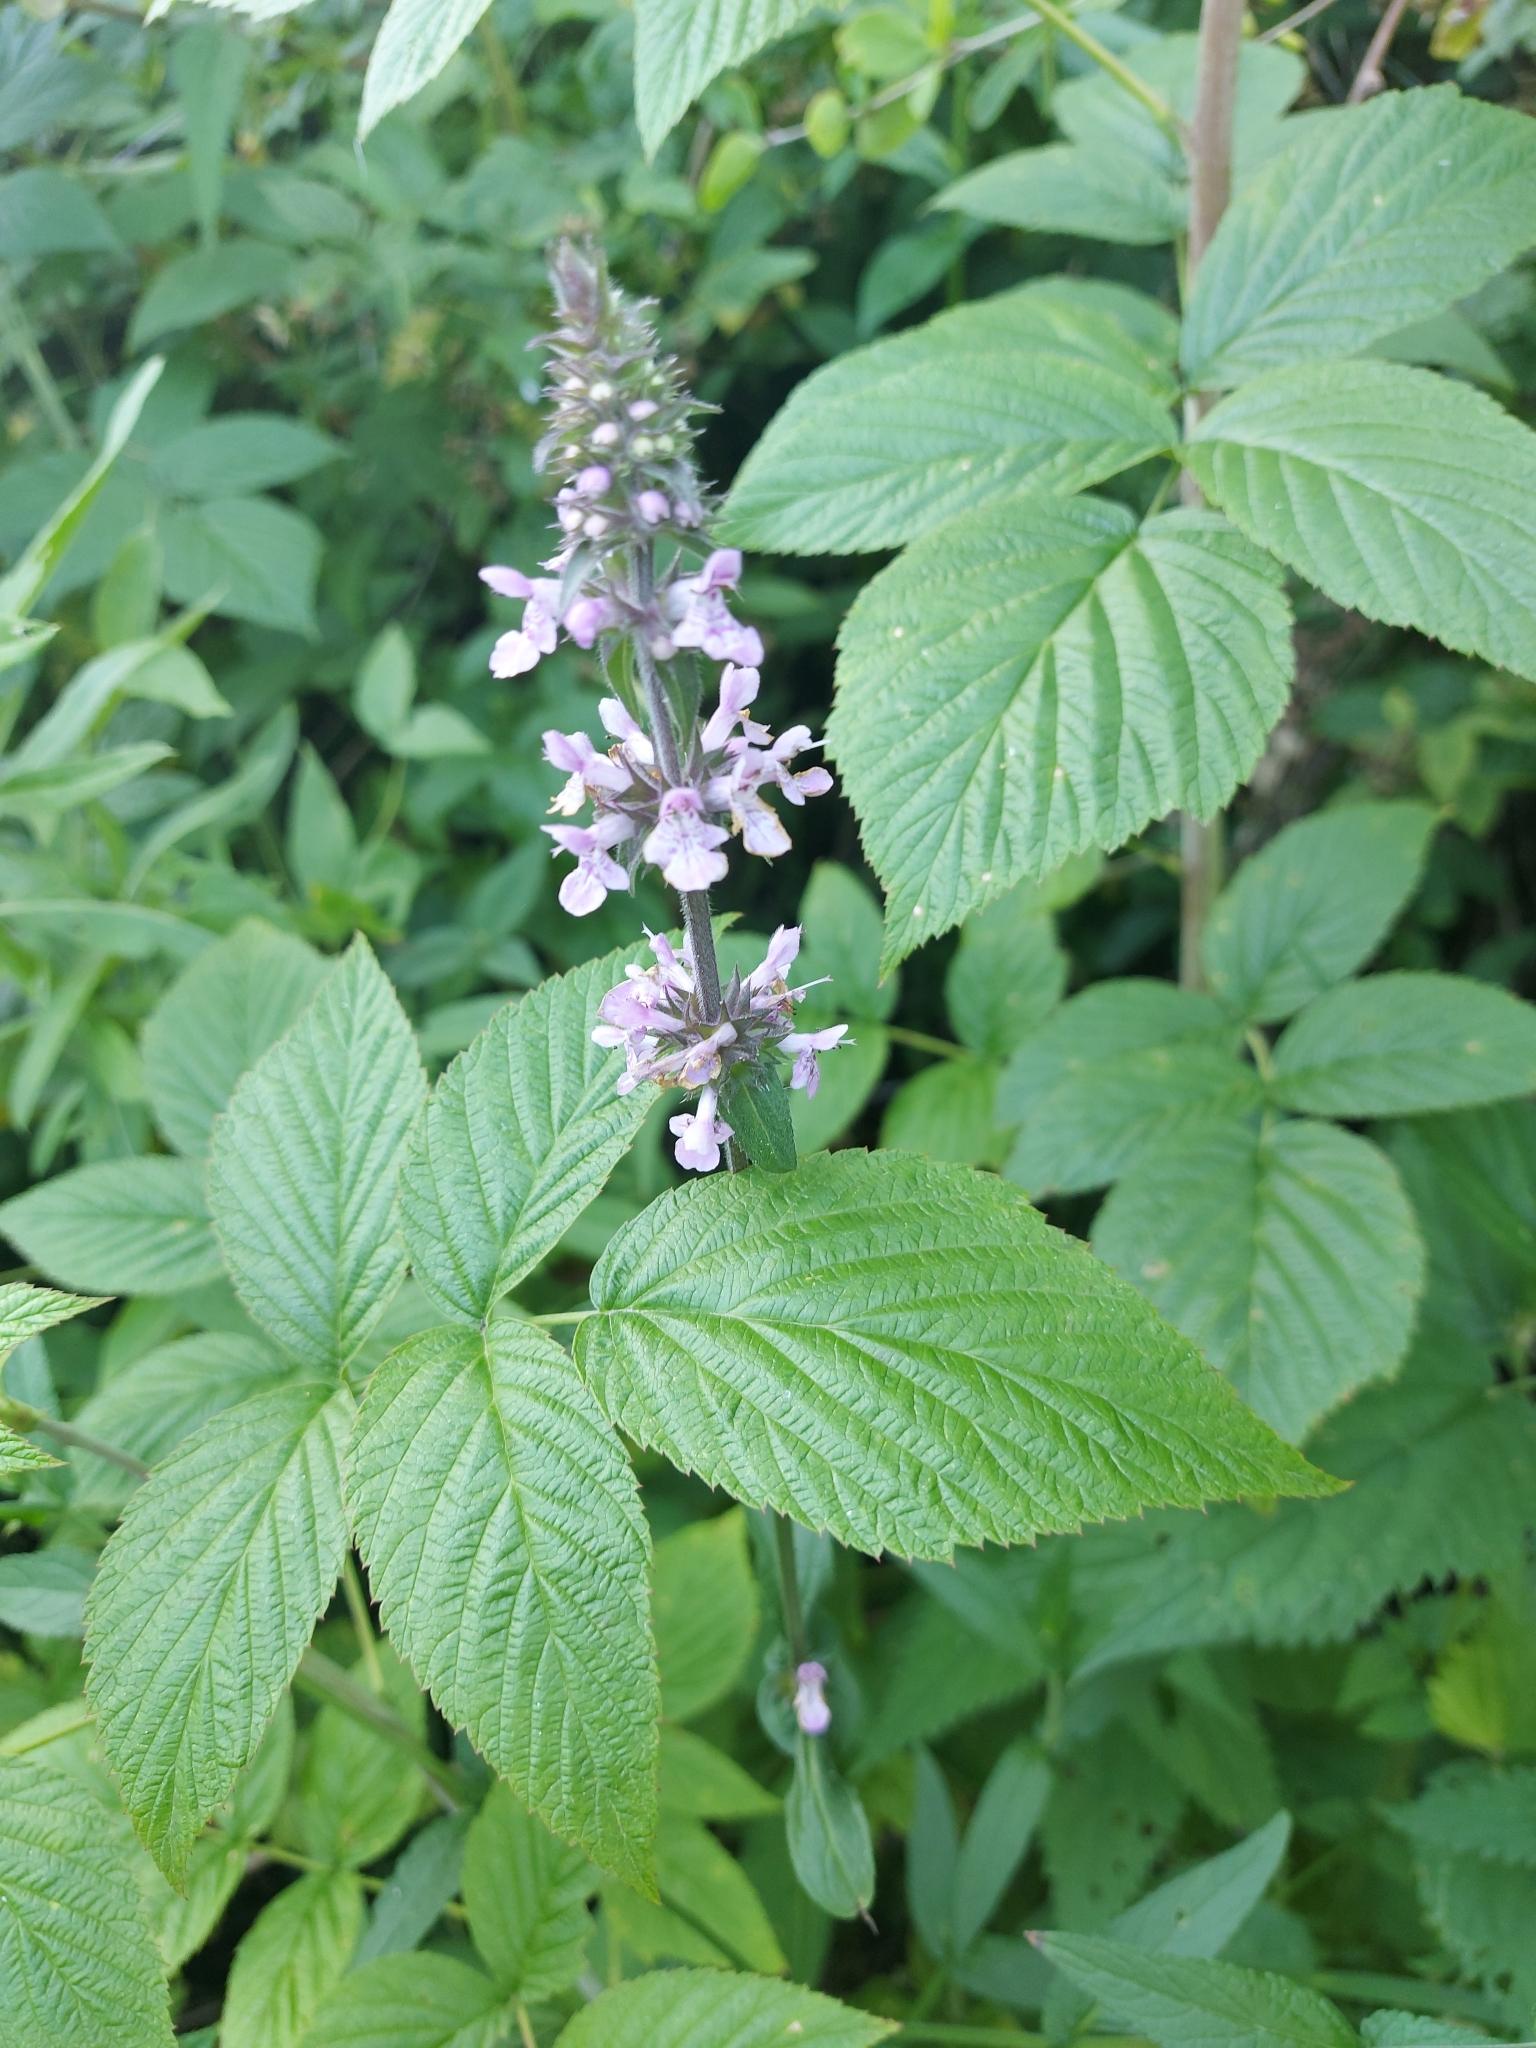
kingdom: Plantae
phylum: Tracheophyta
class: Magnoliopsida
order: Lamiales
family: Lamiaceae
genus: Stachys
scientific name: Stachys palustris
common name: Marsh woundwort
